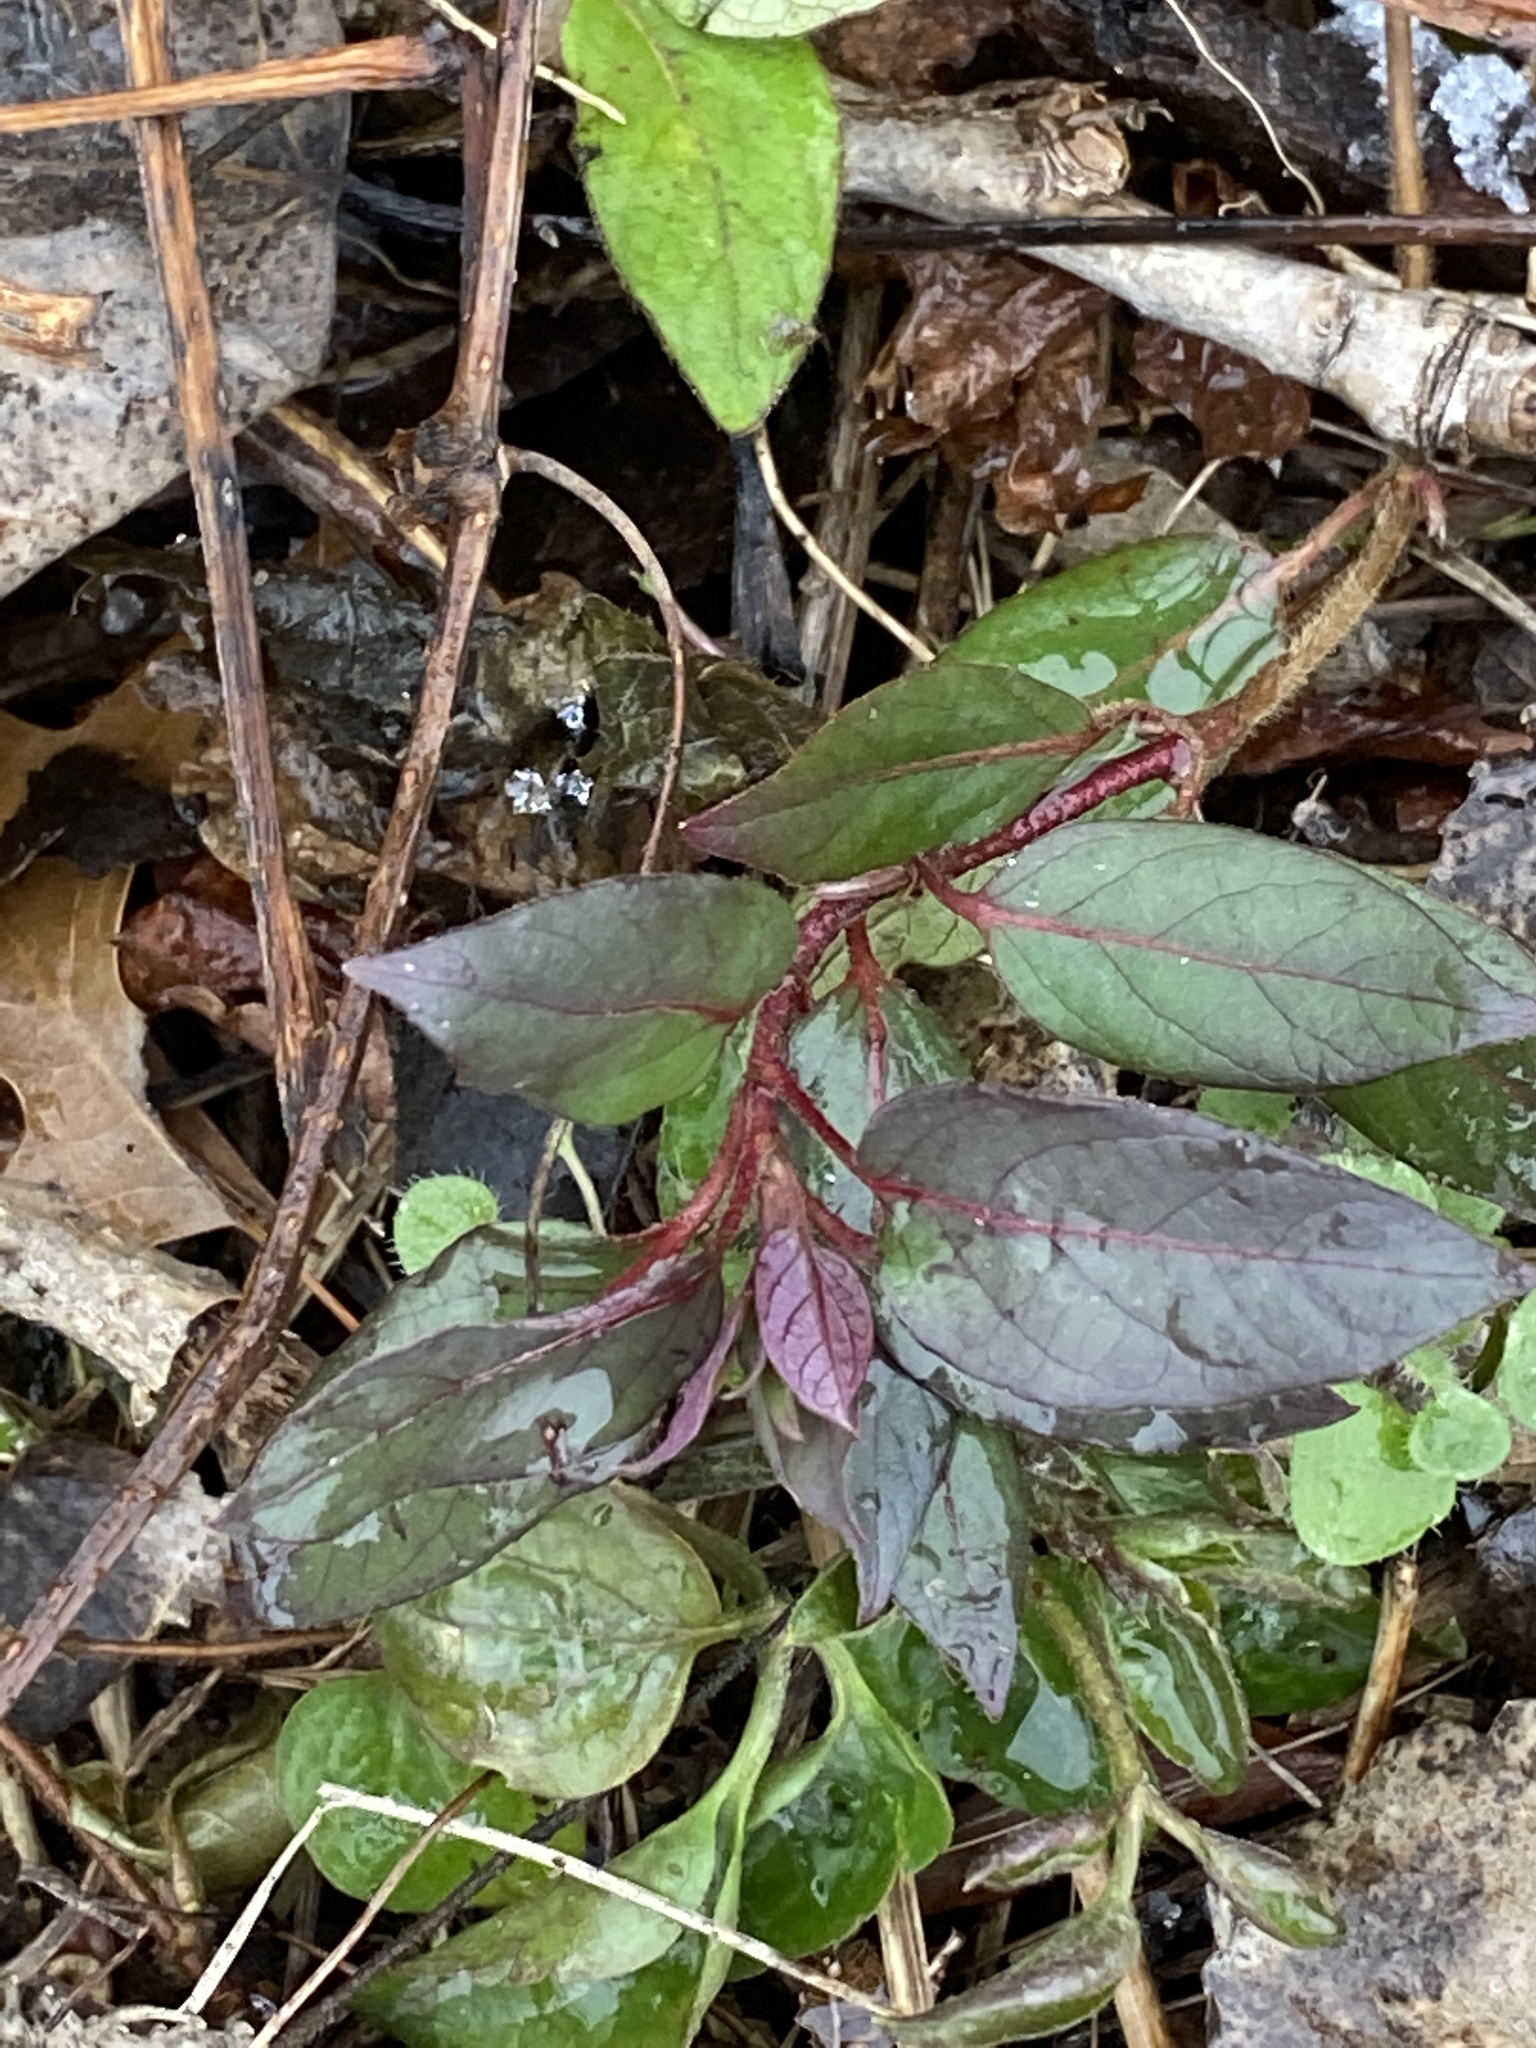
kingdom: Plantae
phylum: Tracheophyta
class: Magnoliopsida
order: Ericales
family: Primulaceae
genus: Lysimachia
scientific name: Lysimachia ciliata
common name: Fringed loosestrife
